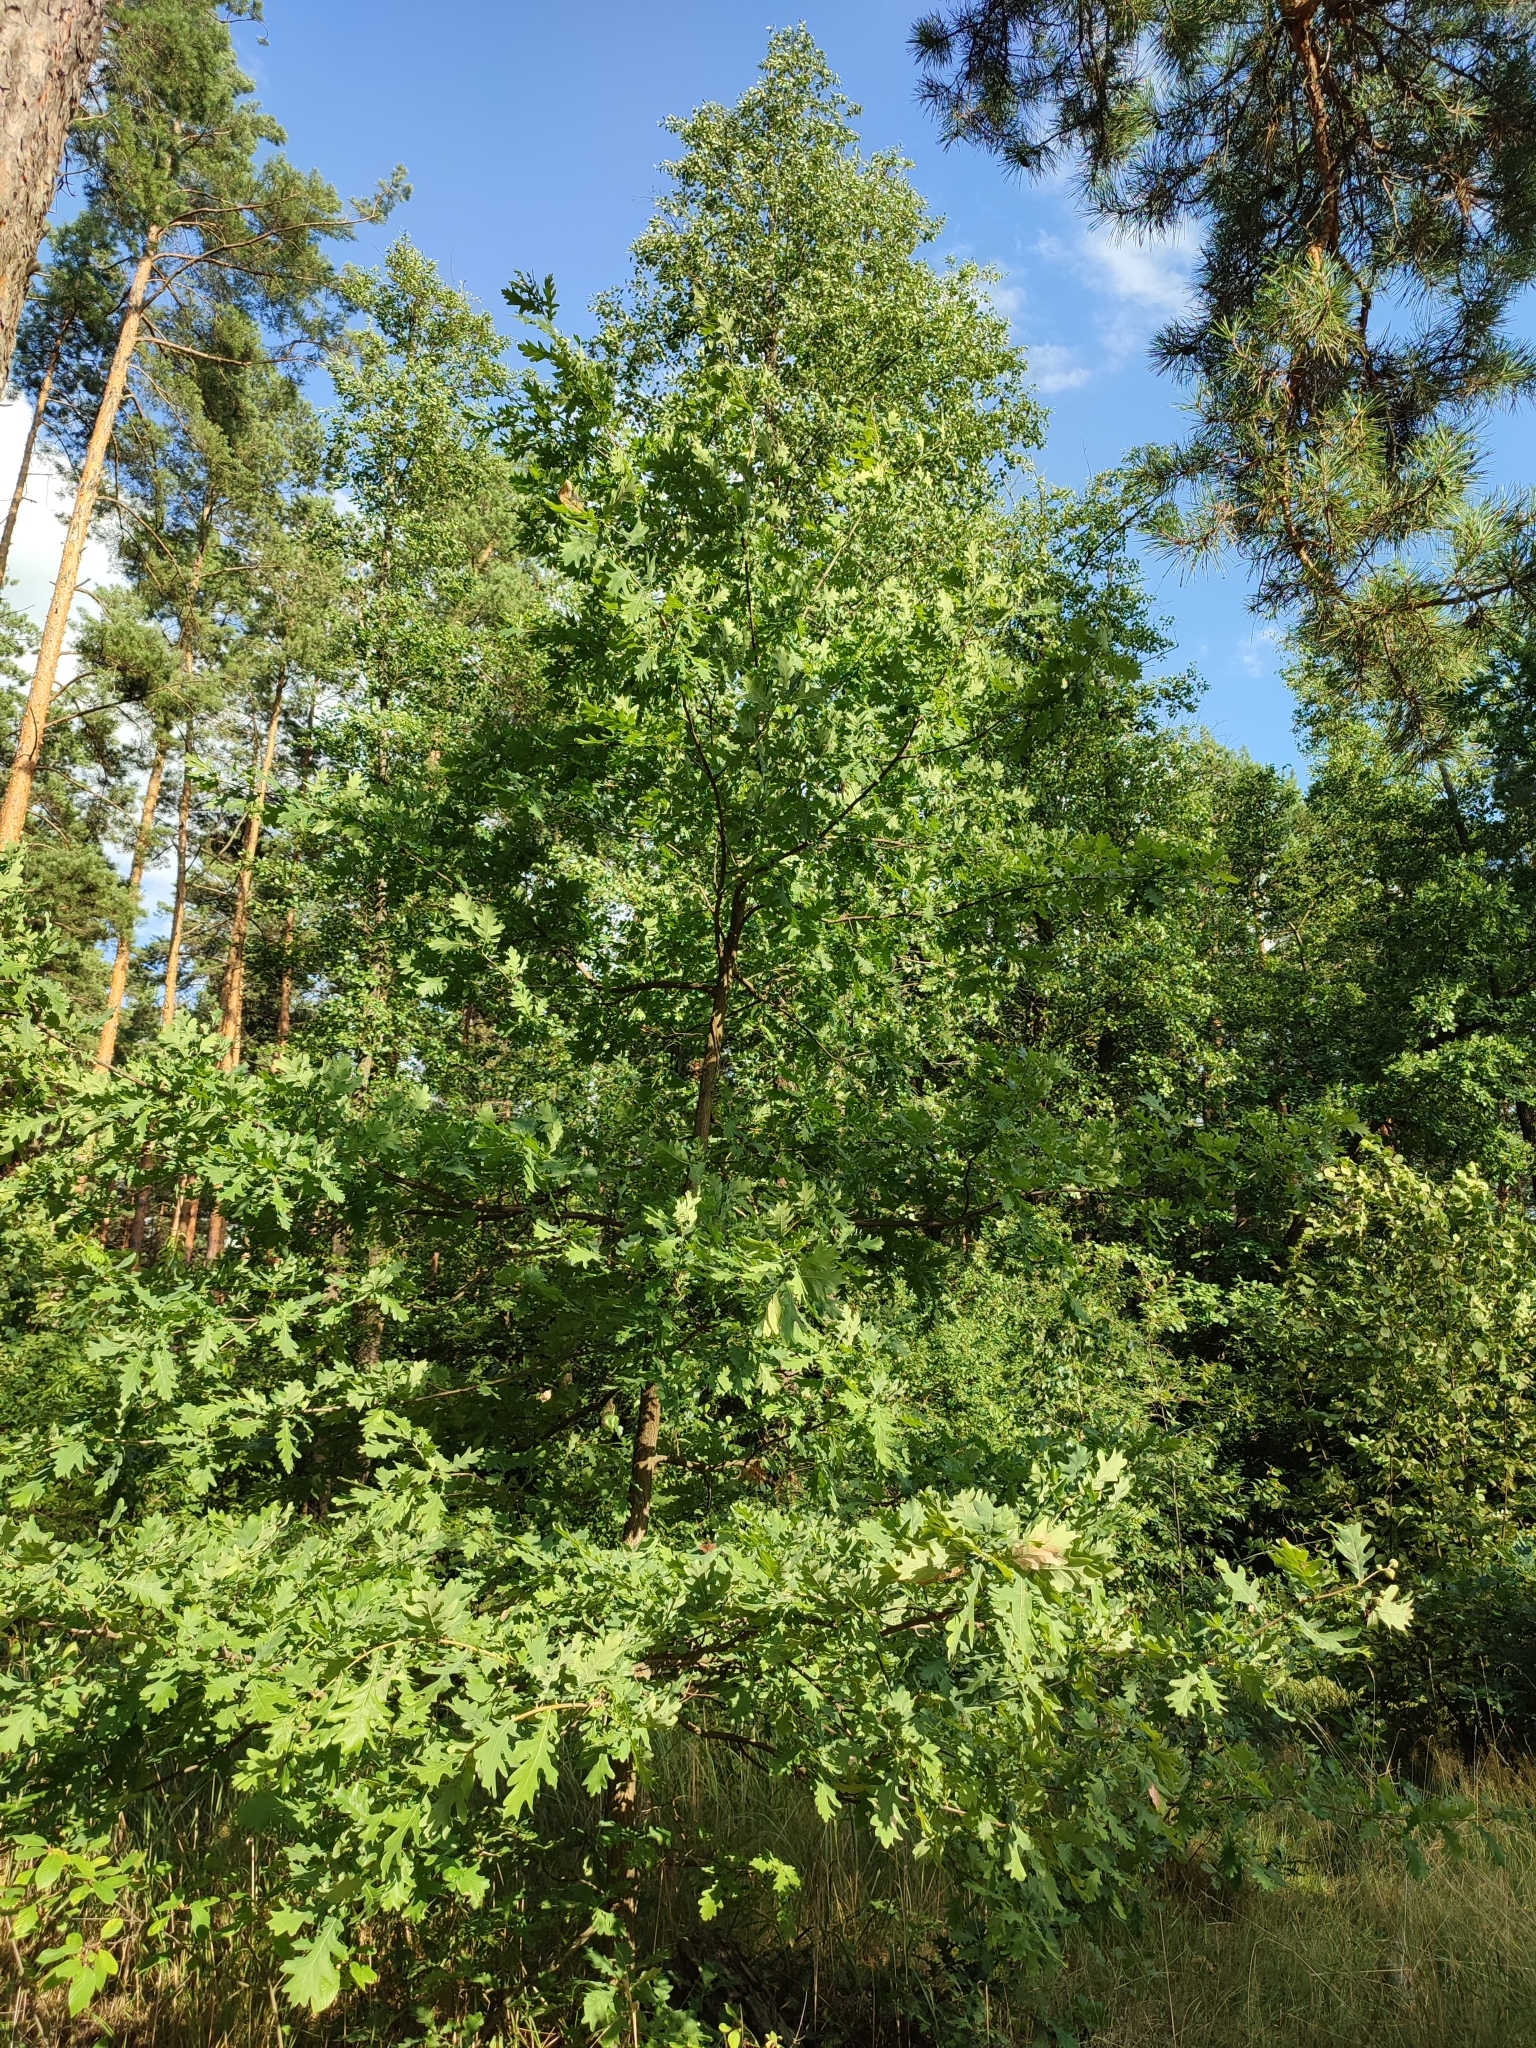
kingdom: Plantae
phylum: Tracheophyta
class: Magnoliopsida
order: Fagales
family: Fagaceae
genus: Quercus
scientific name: Quercus robur
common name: Pedunculate oak
